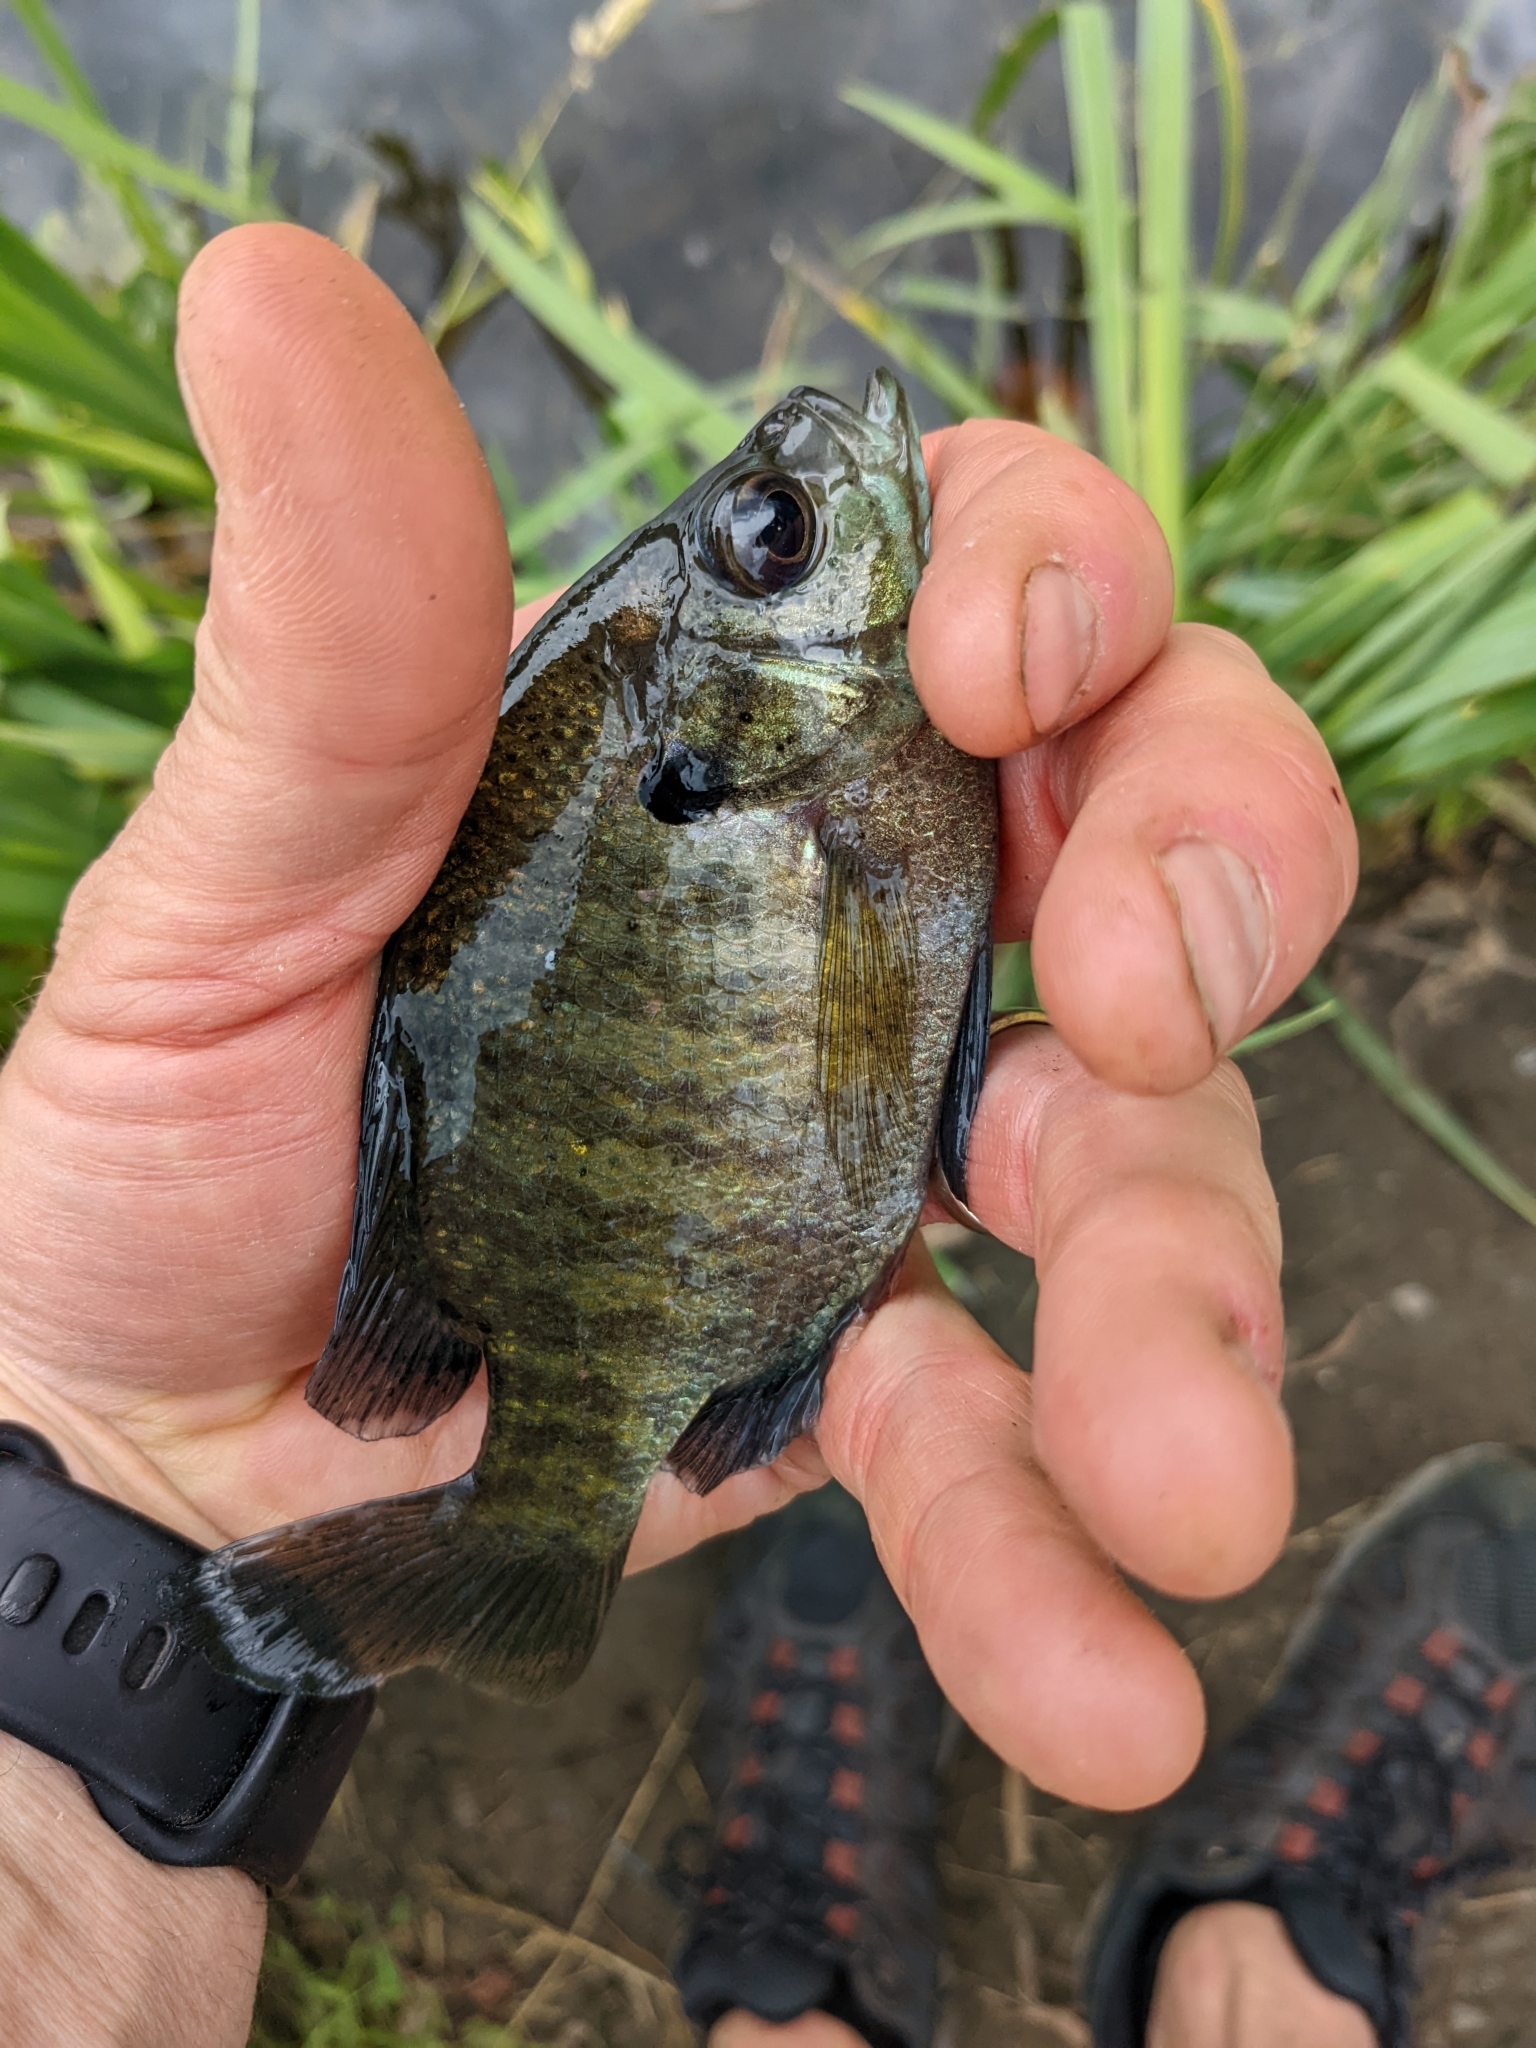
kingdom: Animalia
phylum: Chordata
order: Perciformes
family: Centrarchidae
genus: Lepomis
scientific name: Lepomis macrochirus
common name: Bluegill
